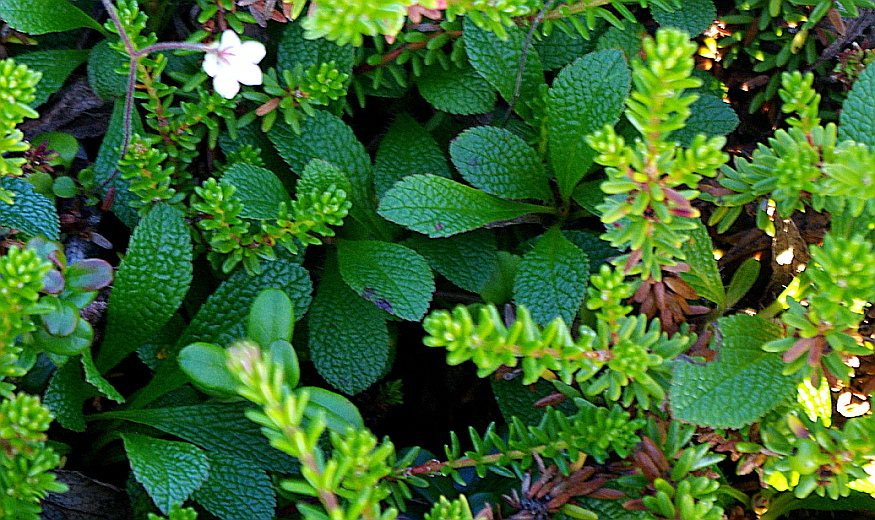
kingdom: Plantae
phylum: Tracheophyta
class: Magnoliopsida
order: Ericales
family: Ericaceae
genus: Arctostaphylos
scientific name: Arctostaphylos alpinus
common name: Alpine bearberry
